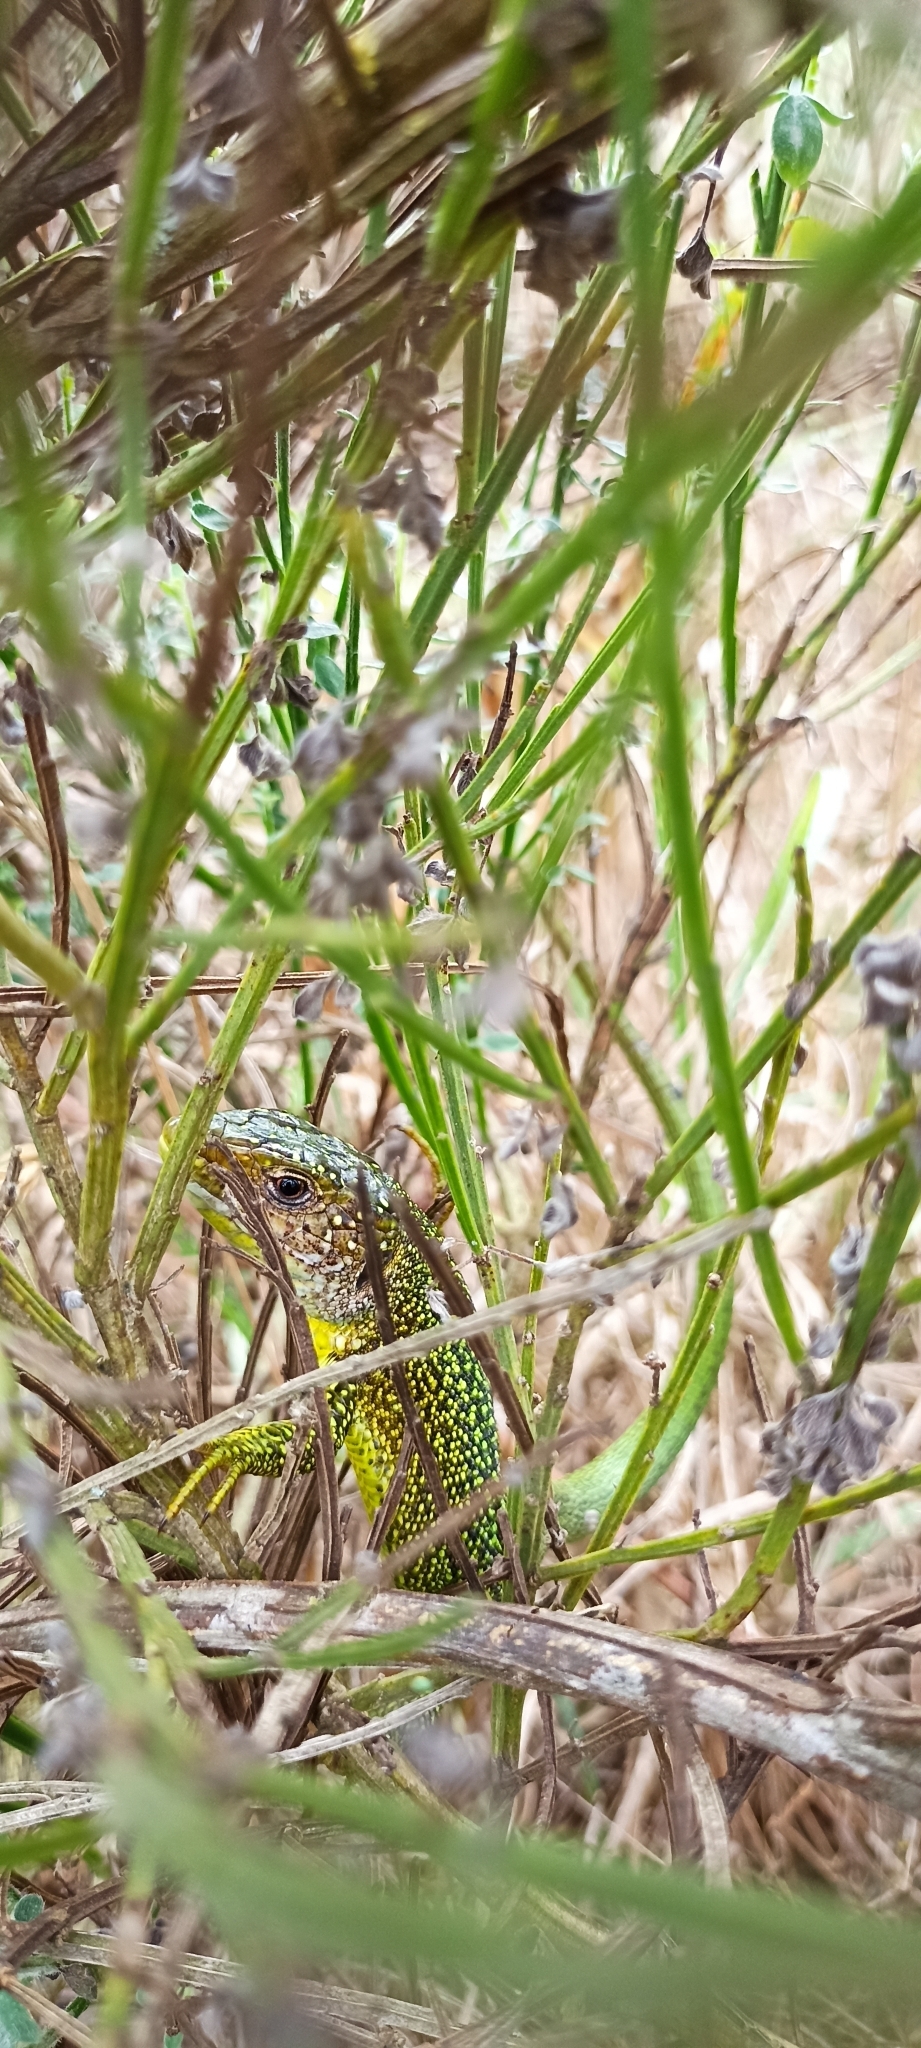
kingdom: Animalia
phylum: Chordata
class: Squamata
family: Lacertidae
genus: Lacerta
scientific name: Lacerta bilineata
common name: Western green lizard
